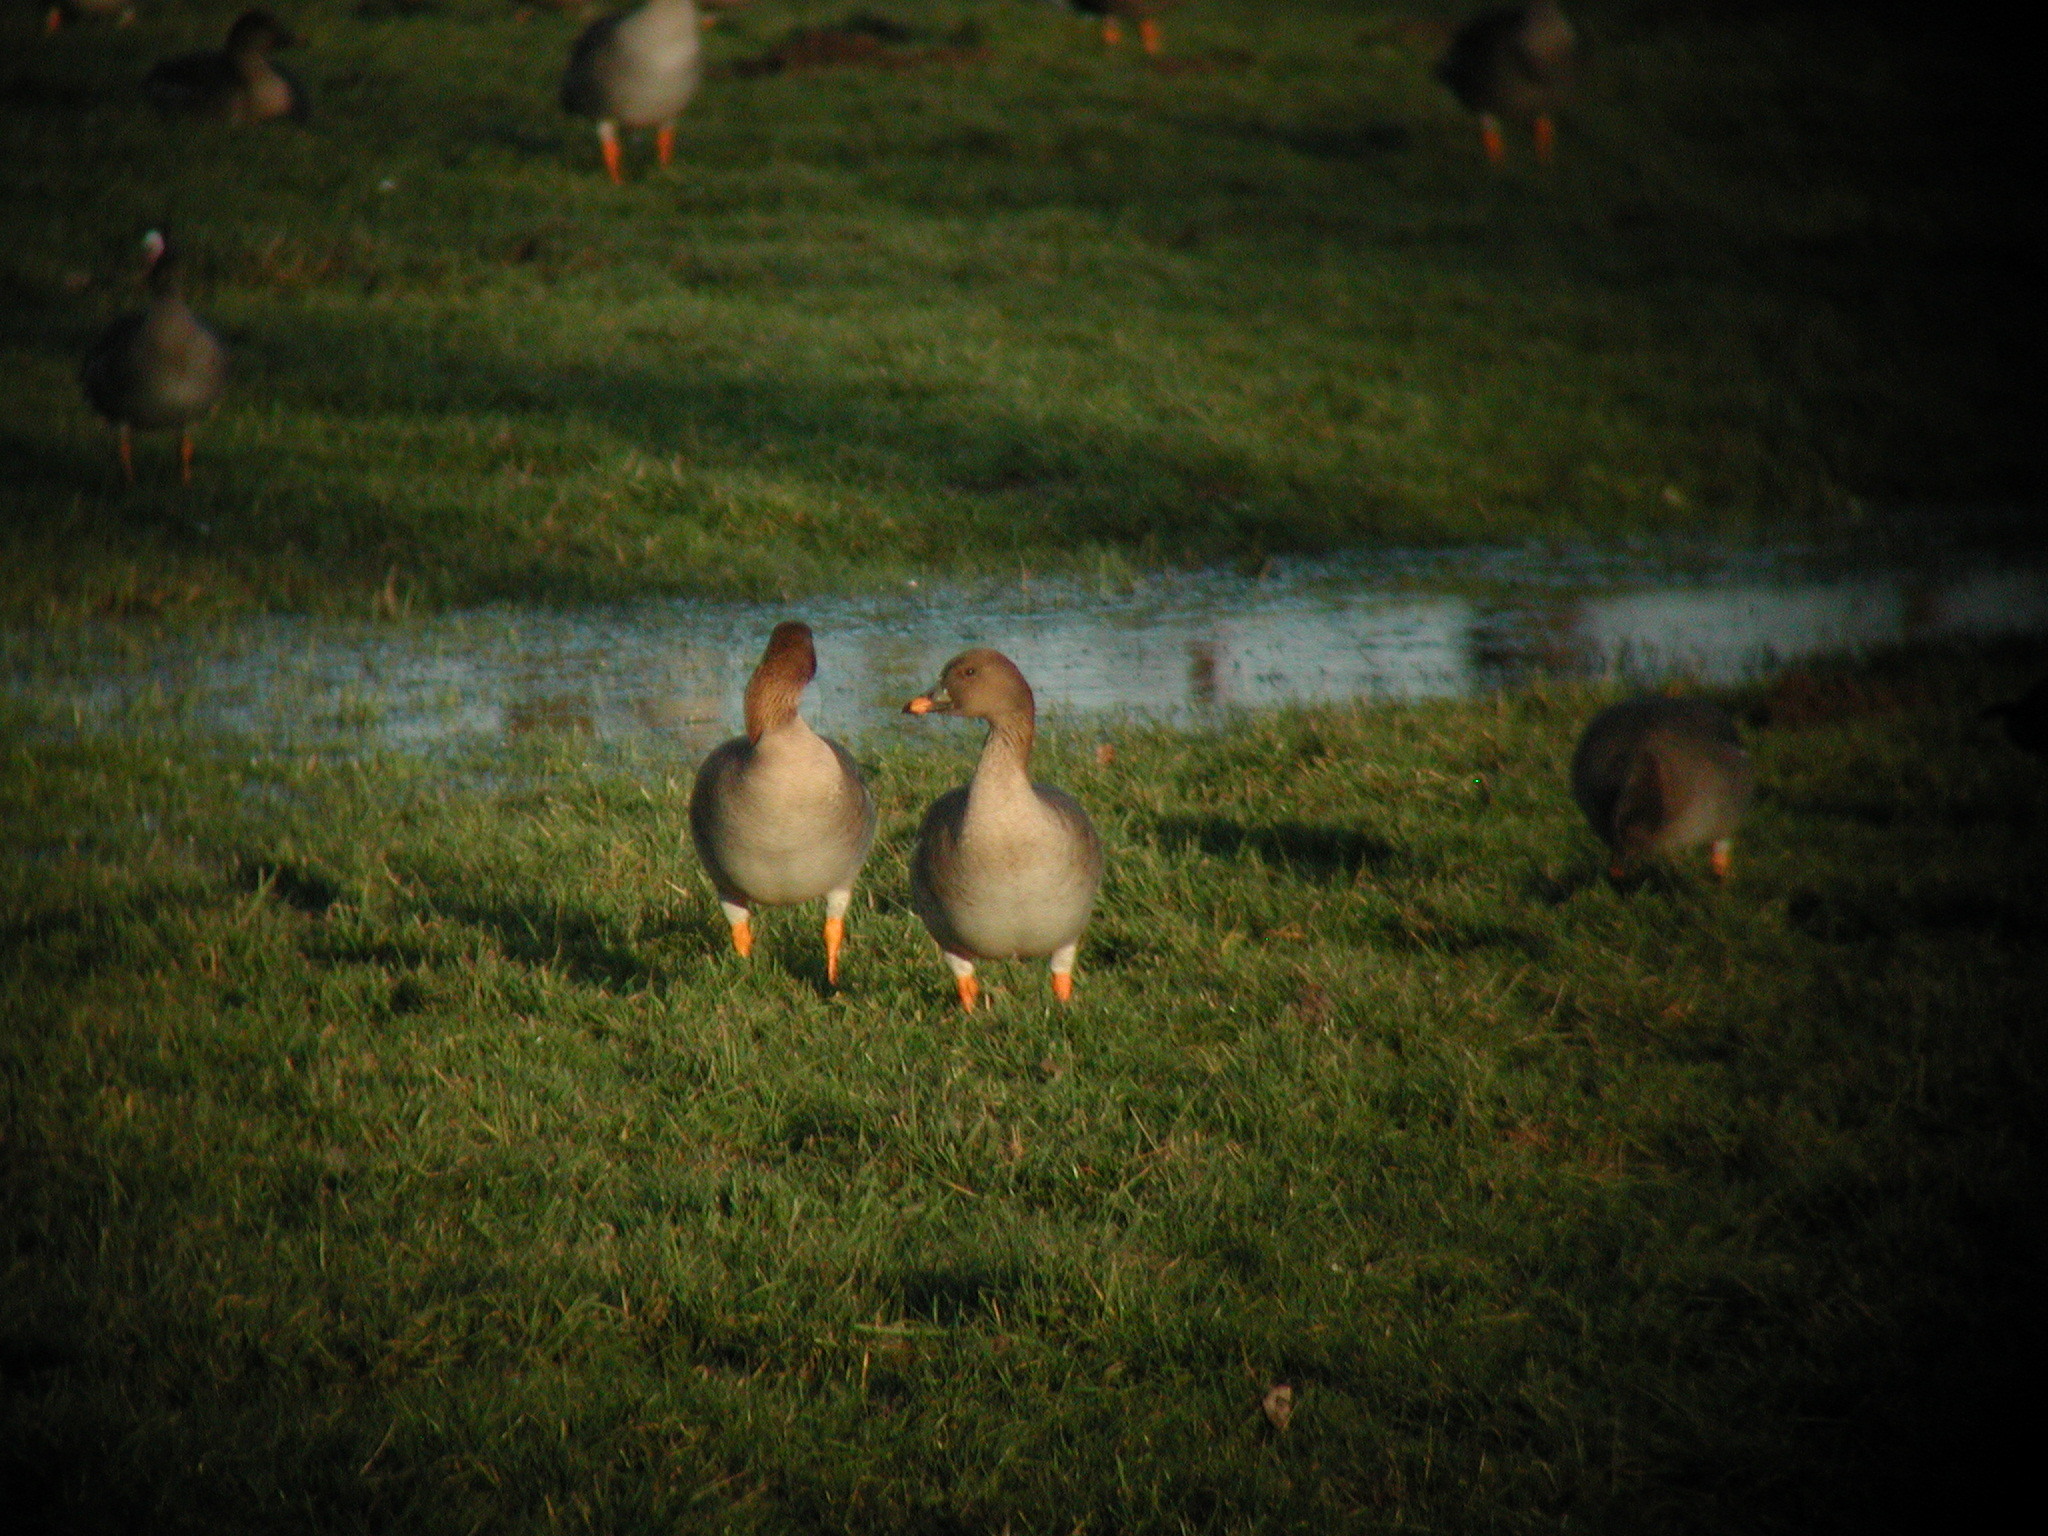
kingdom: Animalia
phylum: Chordata
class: Aves
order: Anseriformes
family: Anatidae
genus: Anser
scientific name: Anser serrirostris
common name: Tundra bean goose
